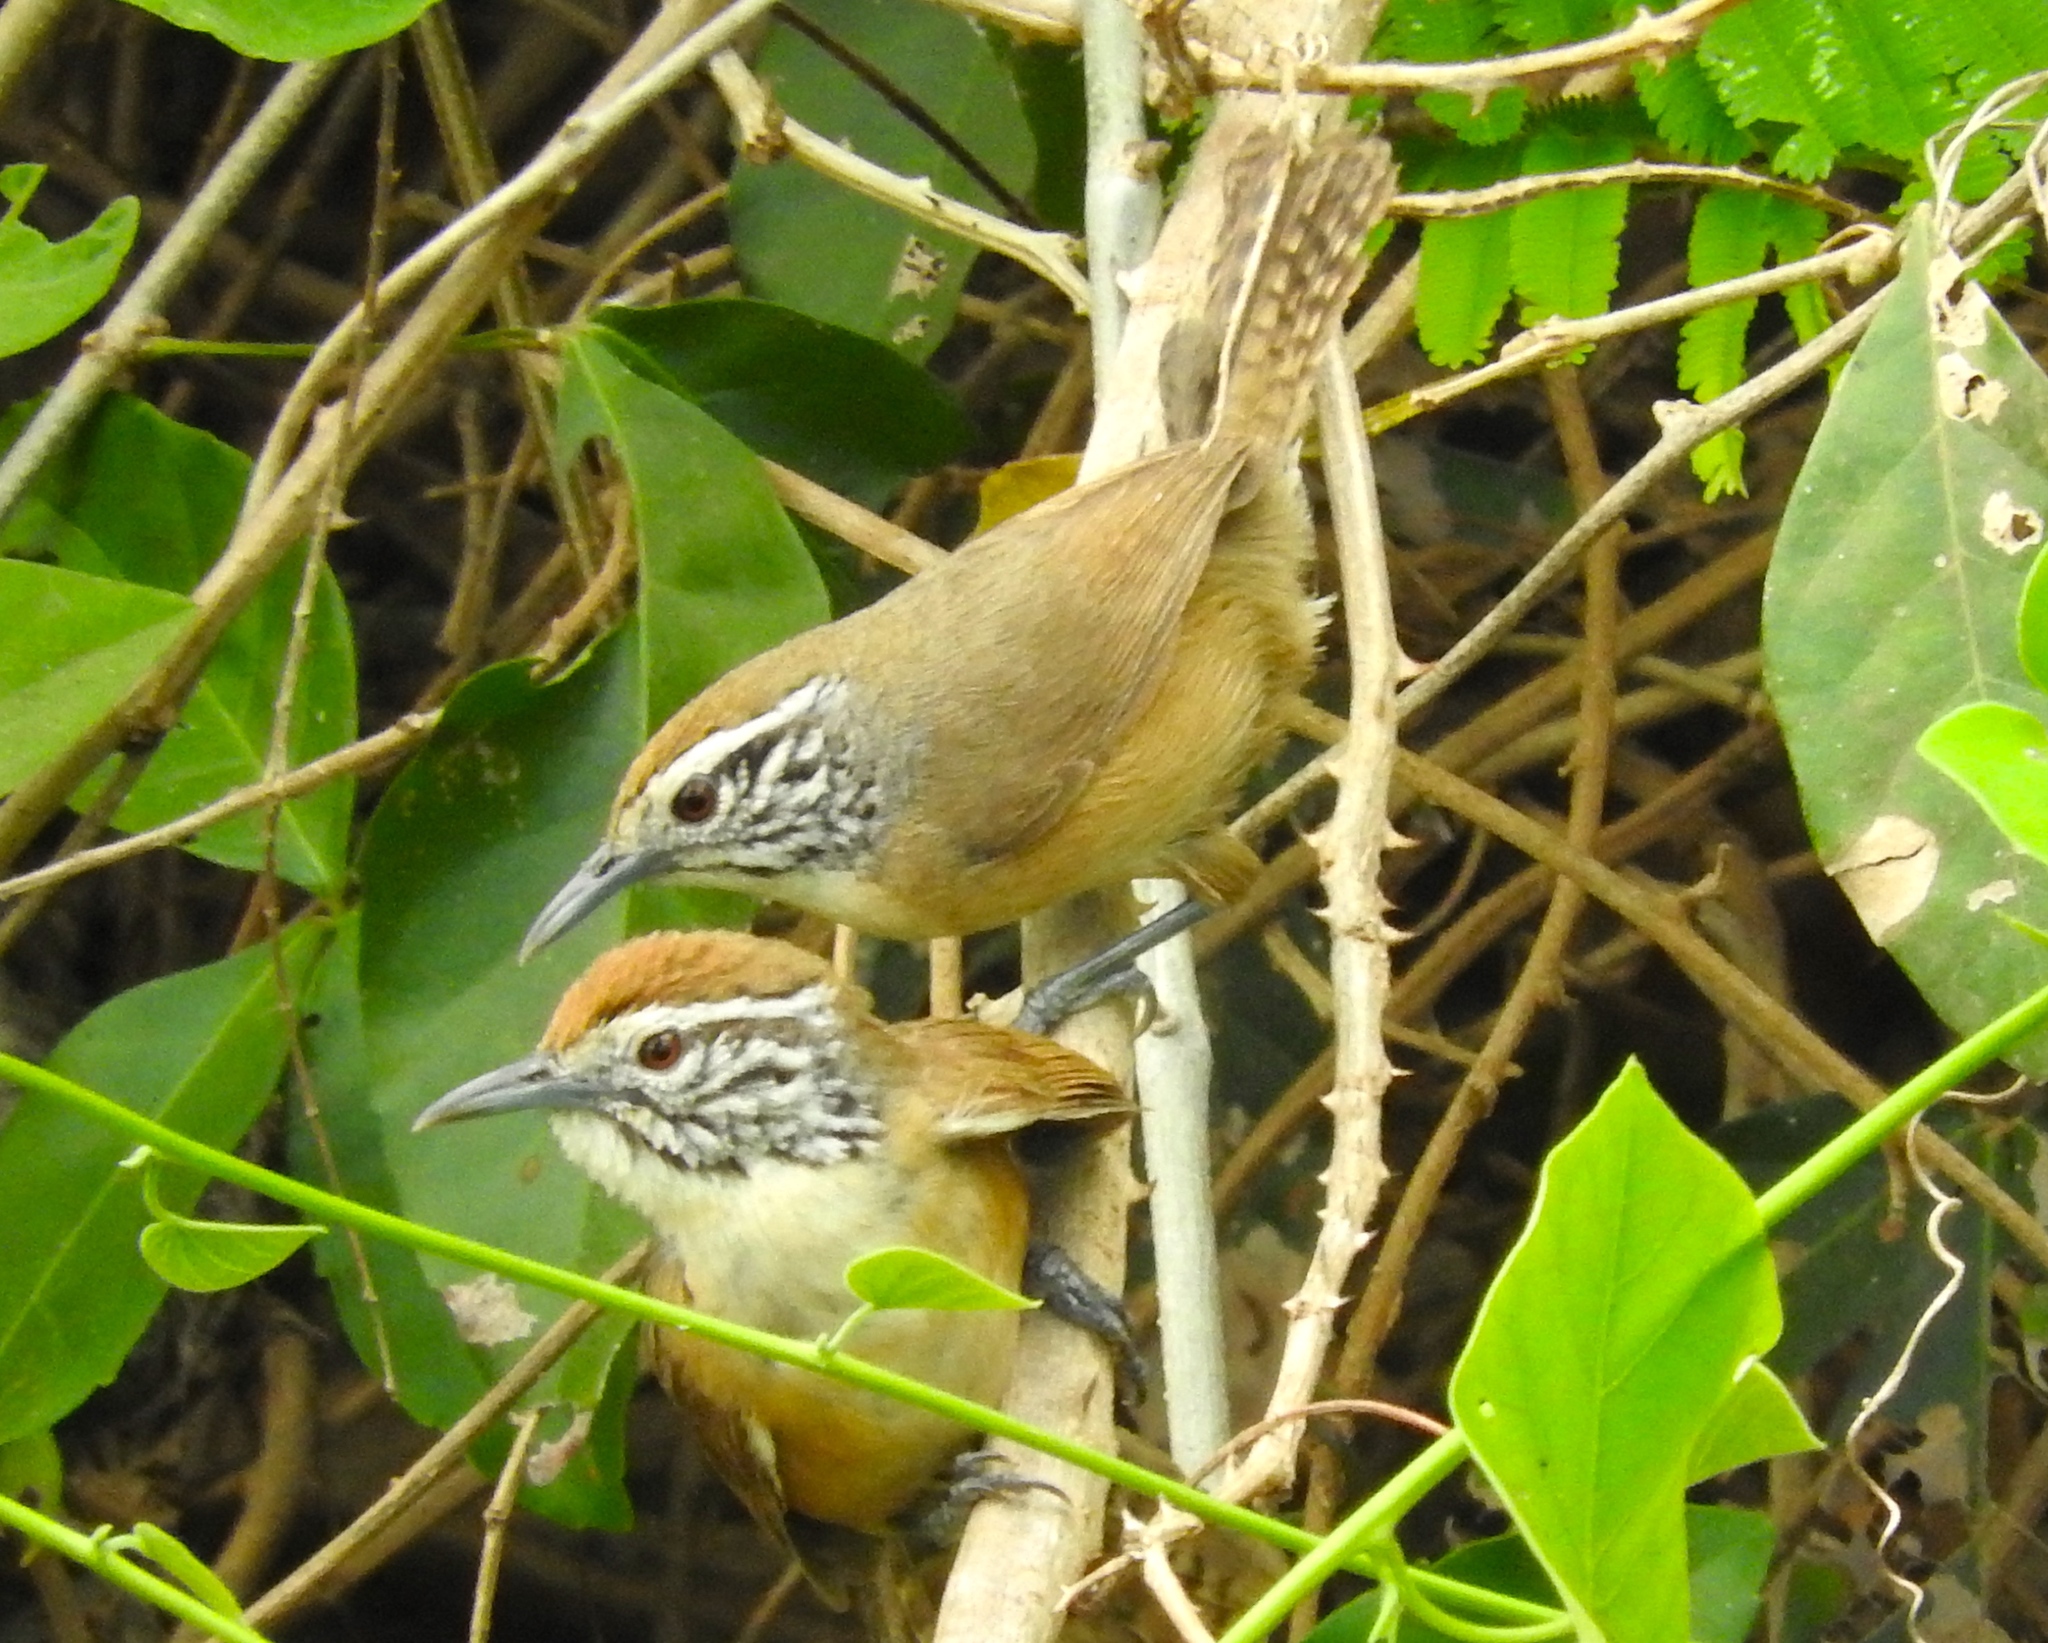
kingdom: Animalia
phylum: Chordata
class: Aves
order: Passeriformes
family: Troglodytidae
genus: Pheugopedius
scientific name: Pheugopedius felix
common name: Happy wren
